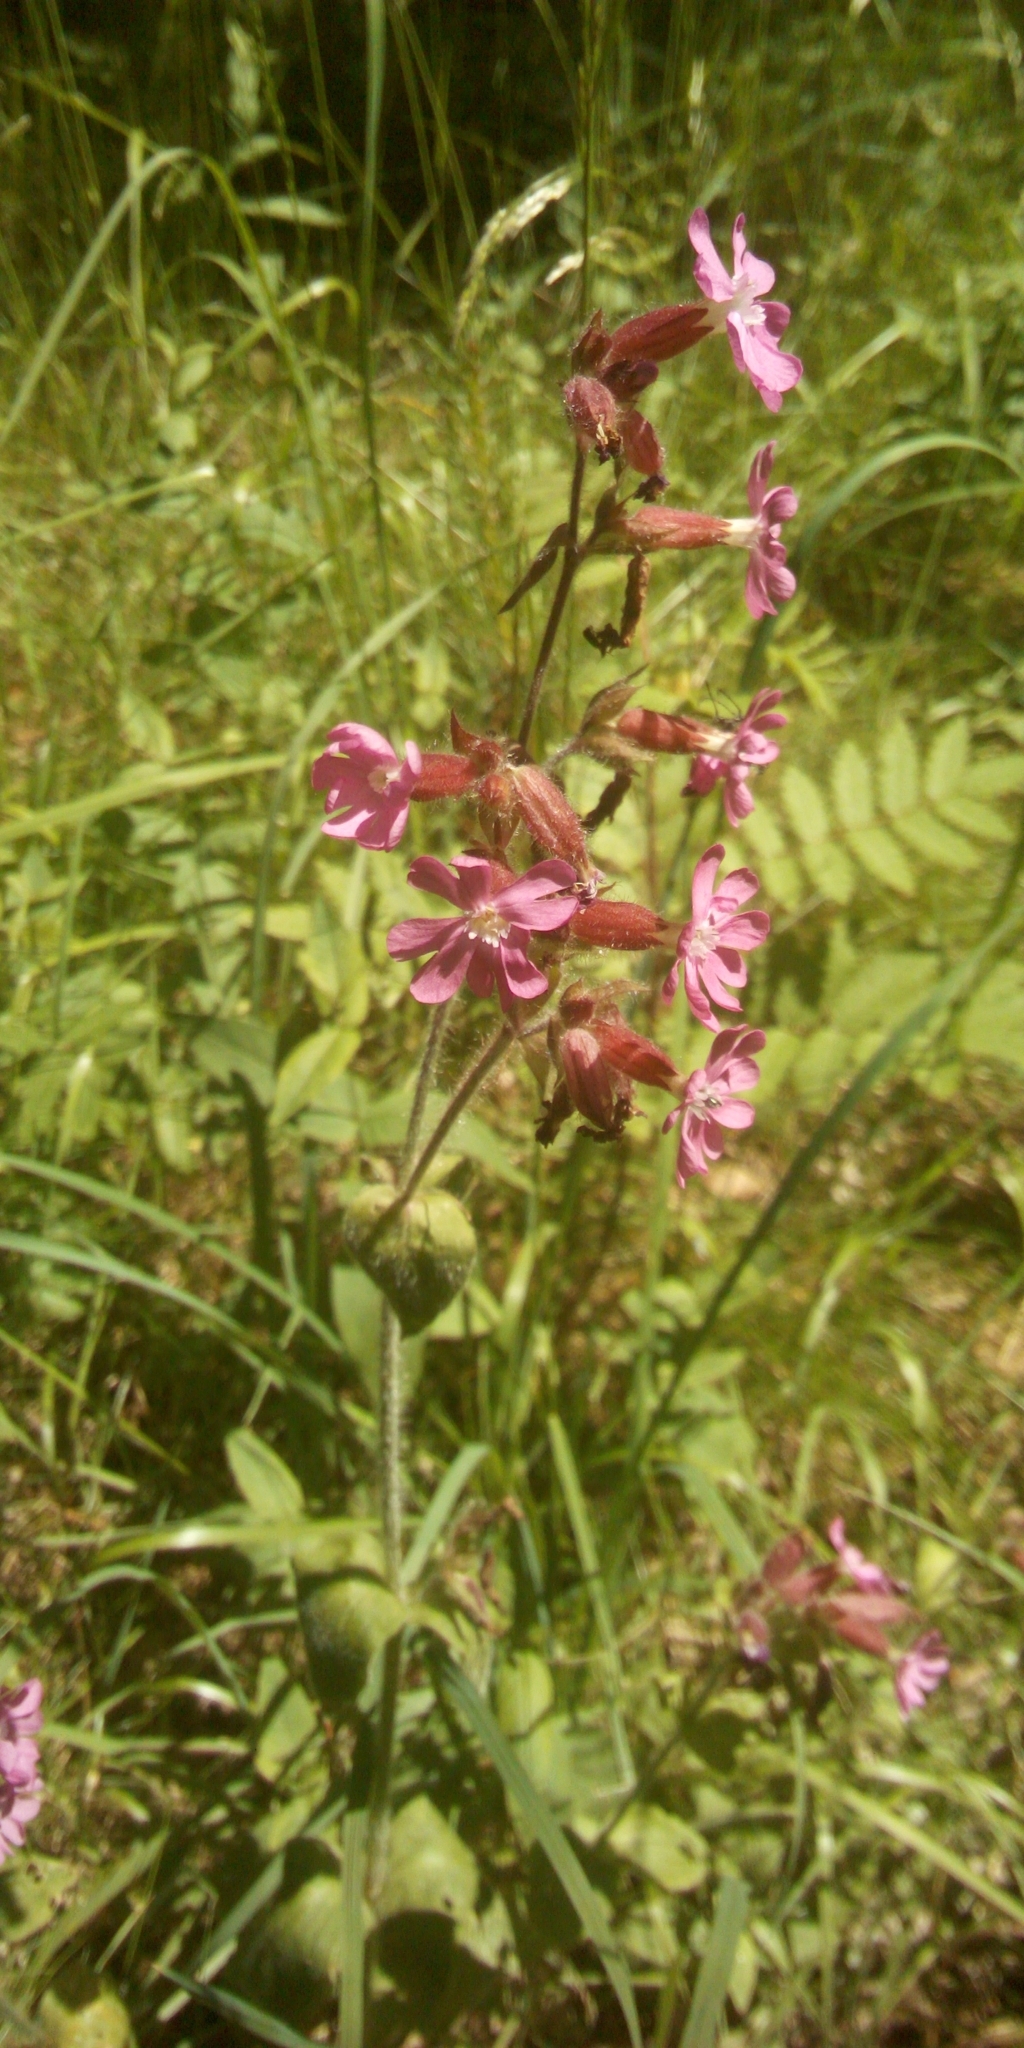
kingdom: Plantae
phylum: Tracheophyta
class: Magnoliopsida
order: Caryophyllales
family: Caryophyllaceae
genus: Silene
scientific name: Silene dioica
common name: Red campion
